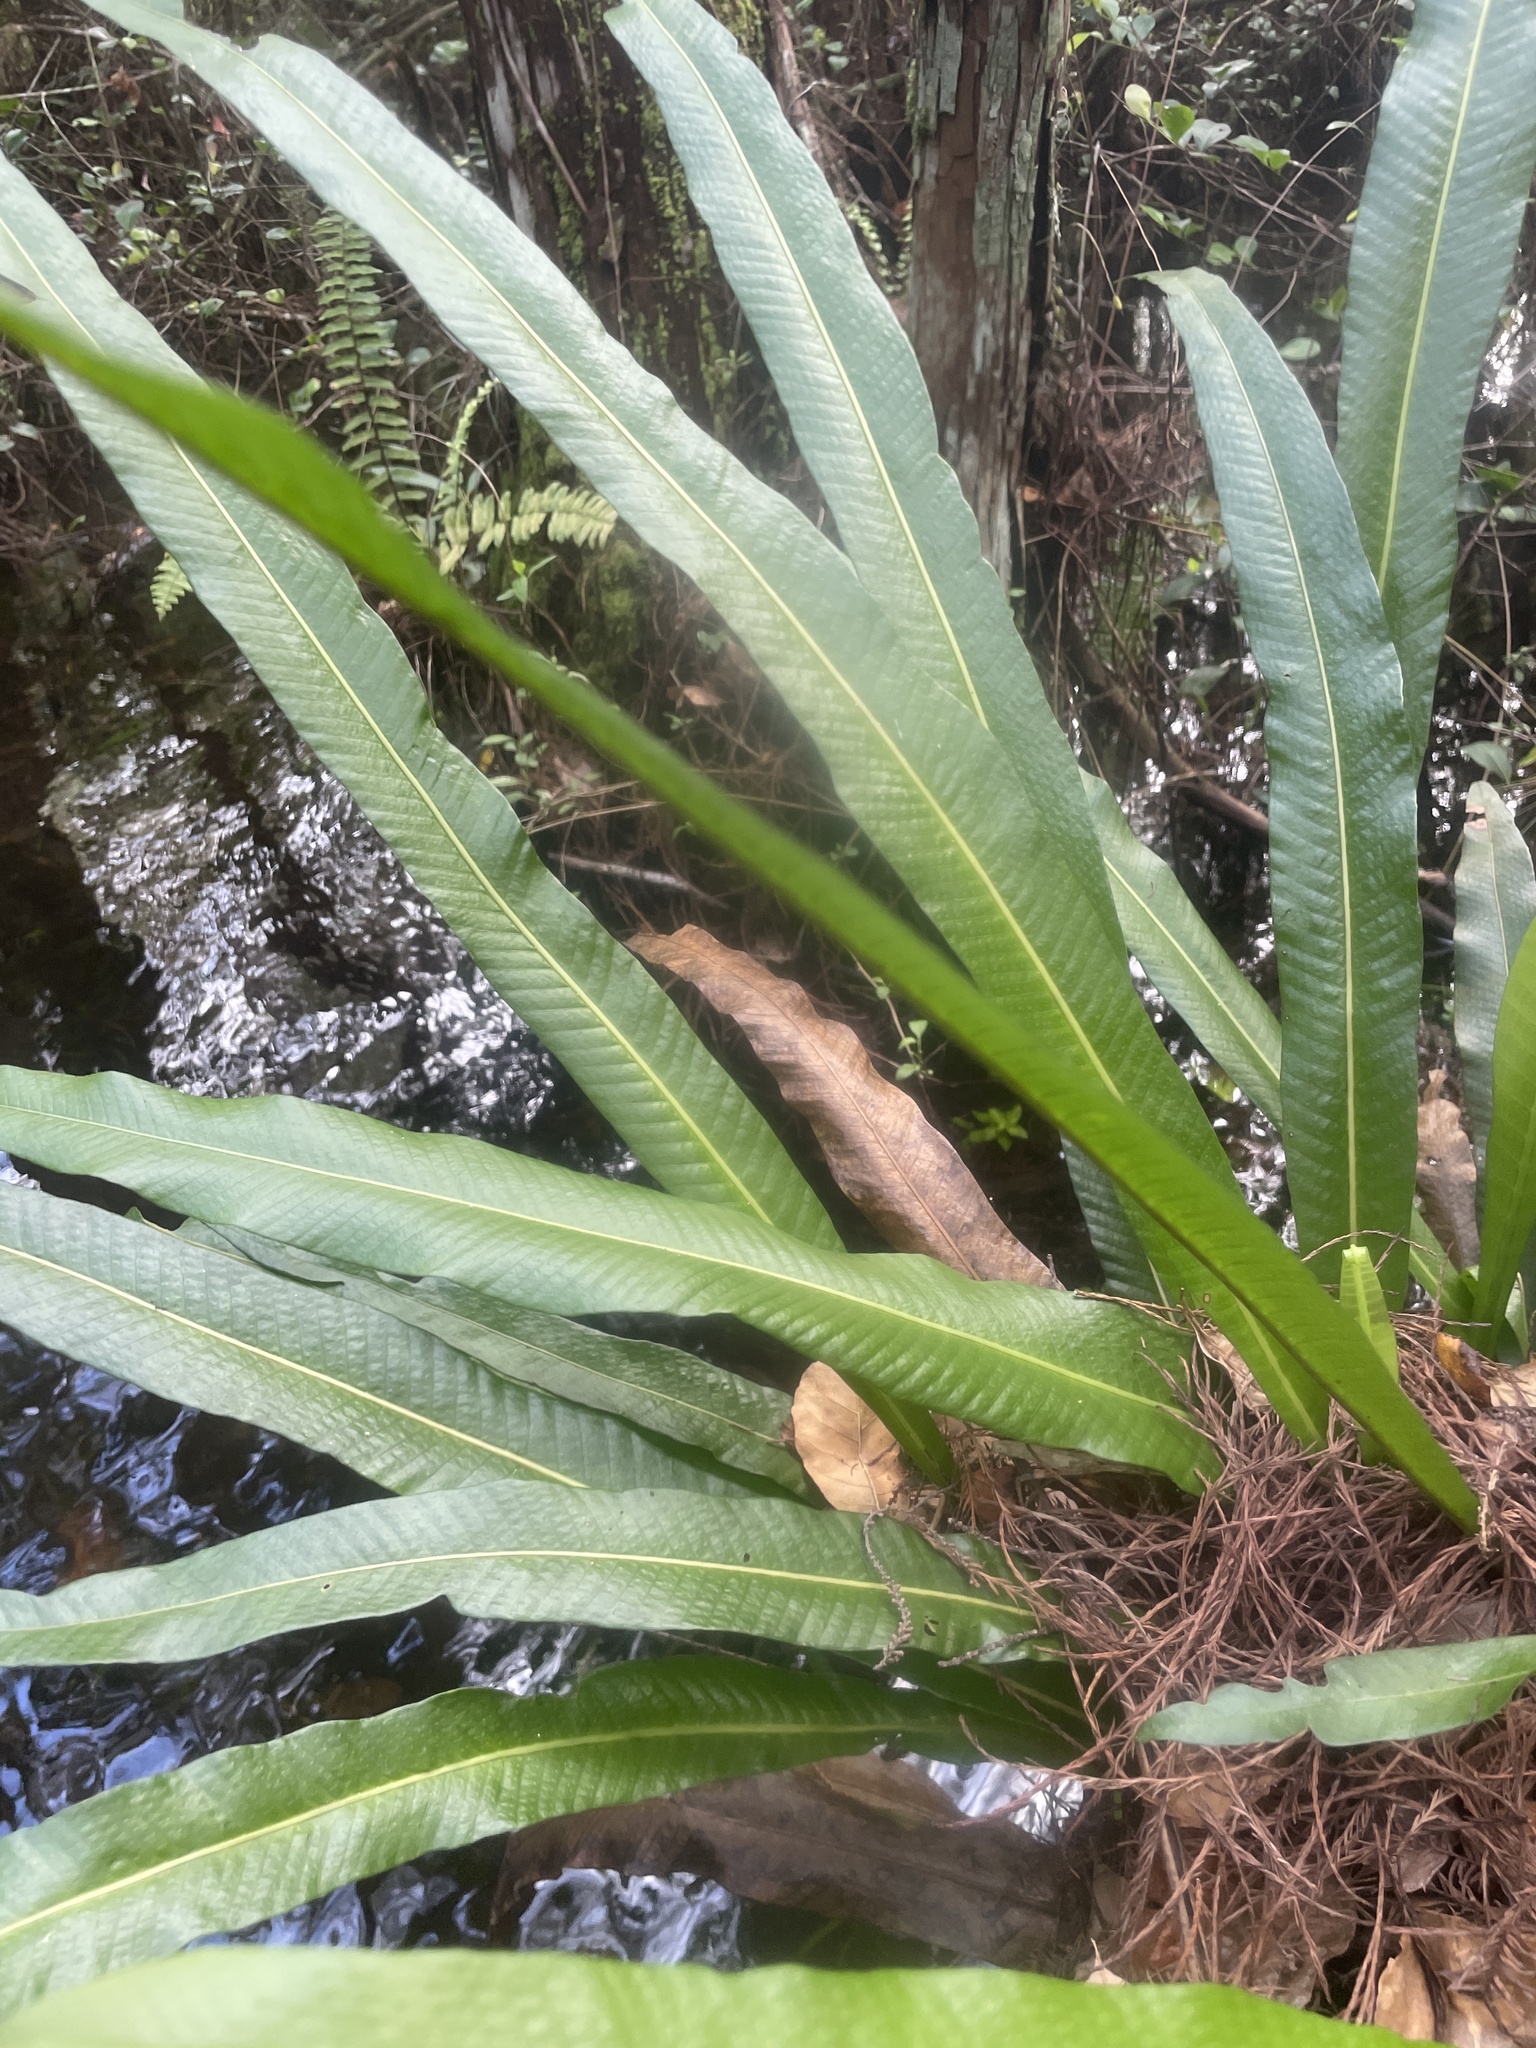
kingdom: Plantae
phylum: Tracheophyta
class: Polypodiopsida
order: Polypodiales
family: Polypodiaceae
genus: Campyloneurum
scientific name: Campyloneurum phyllitidis
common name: Cow-tongue fern
